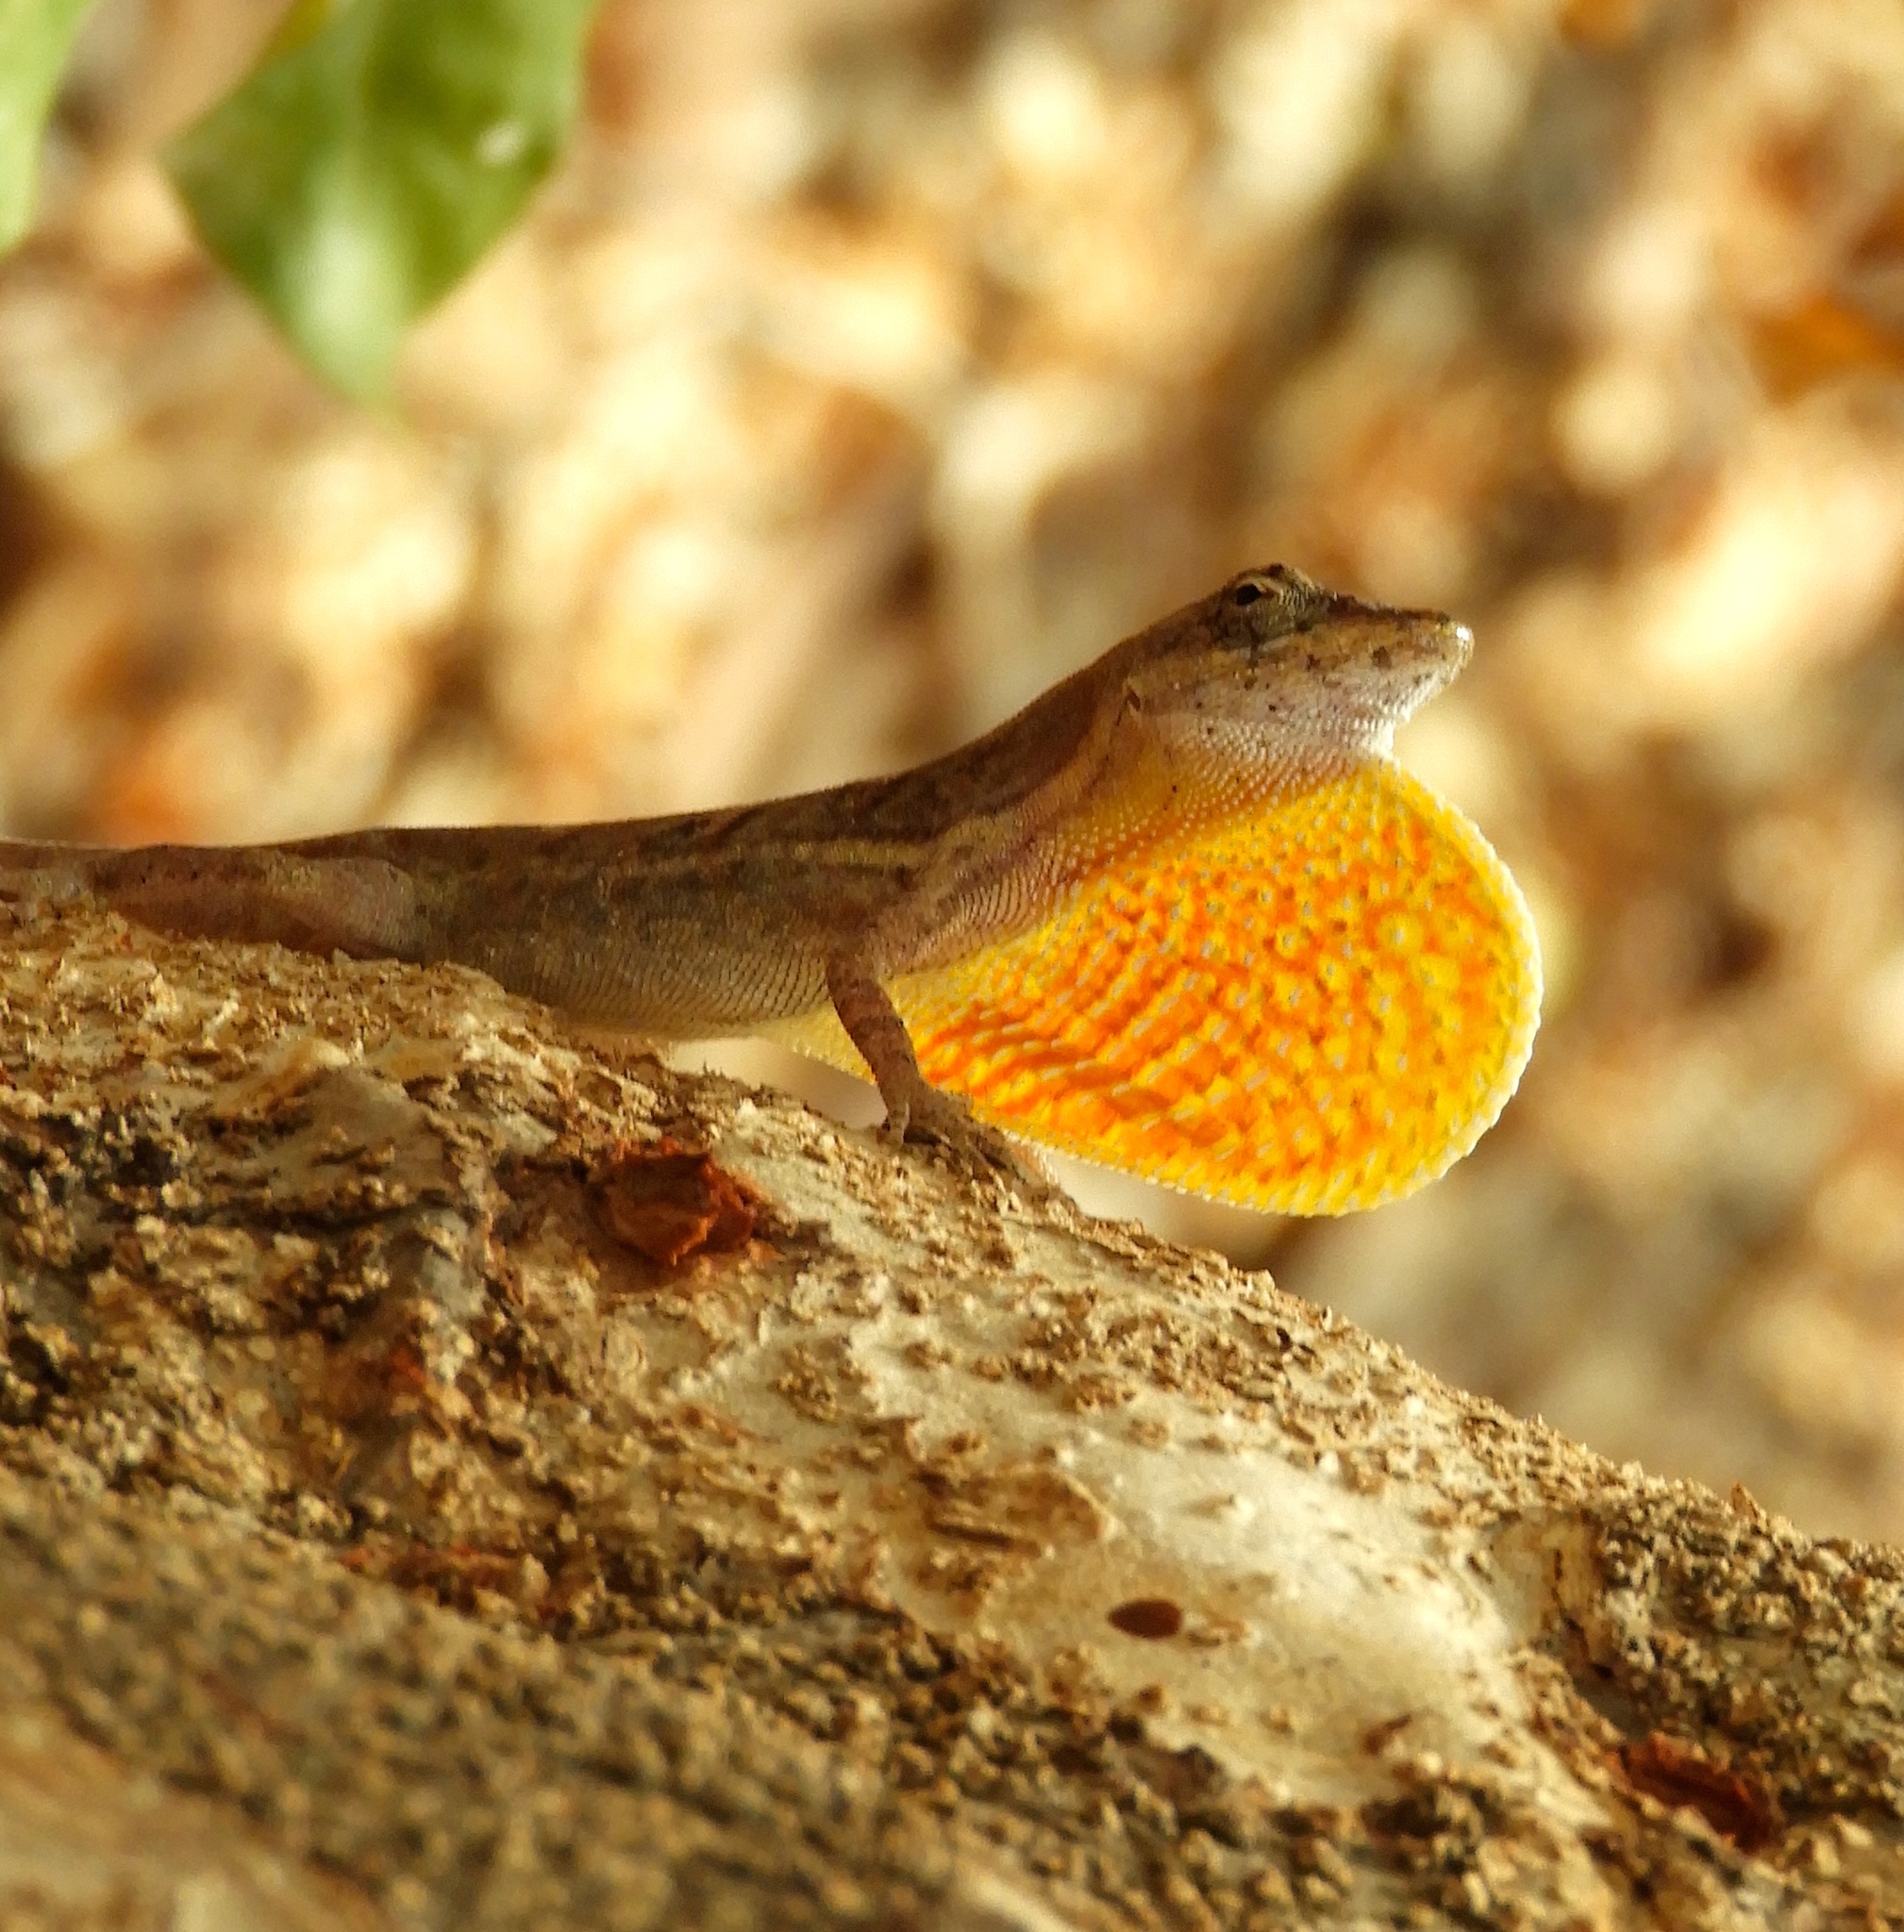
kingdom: Animalia
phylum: Chordata
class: Squamata
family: Dactyloidae
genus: Anolis
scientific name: Anolis nebulosus
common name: Clouded anole
